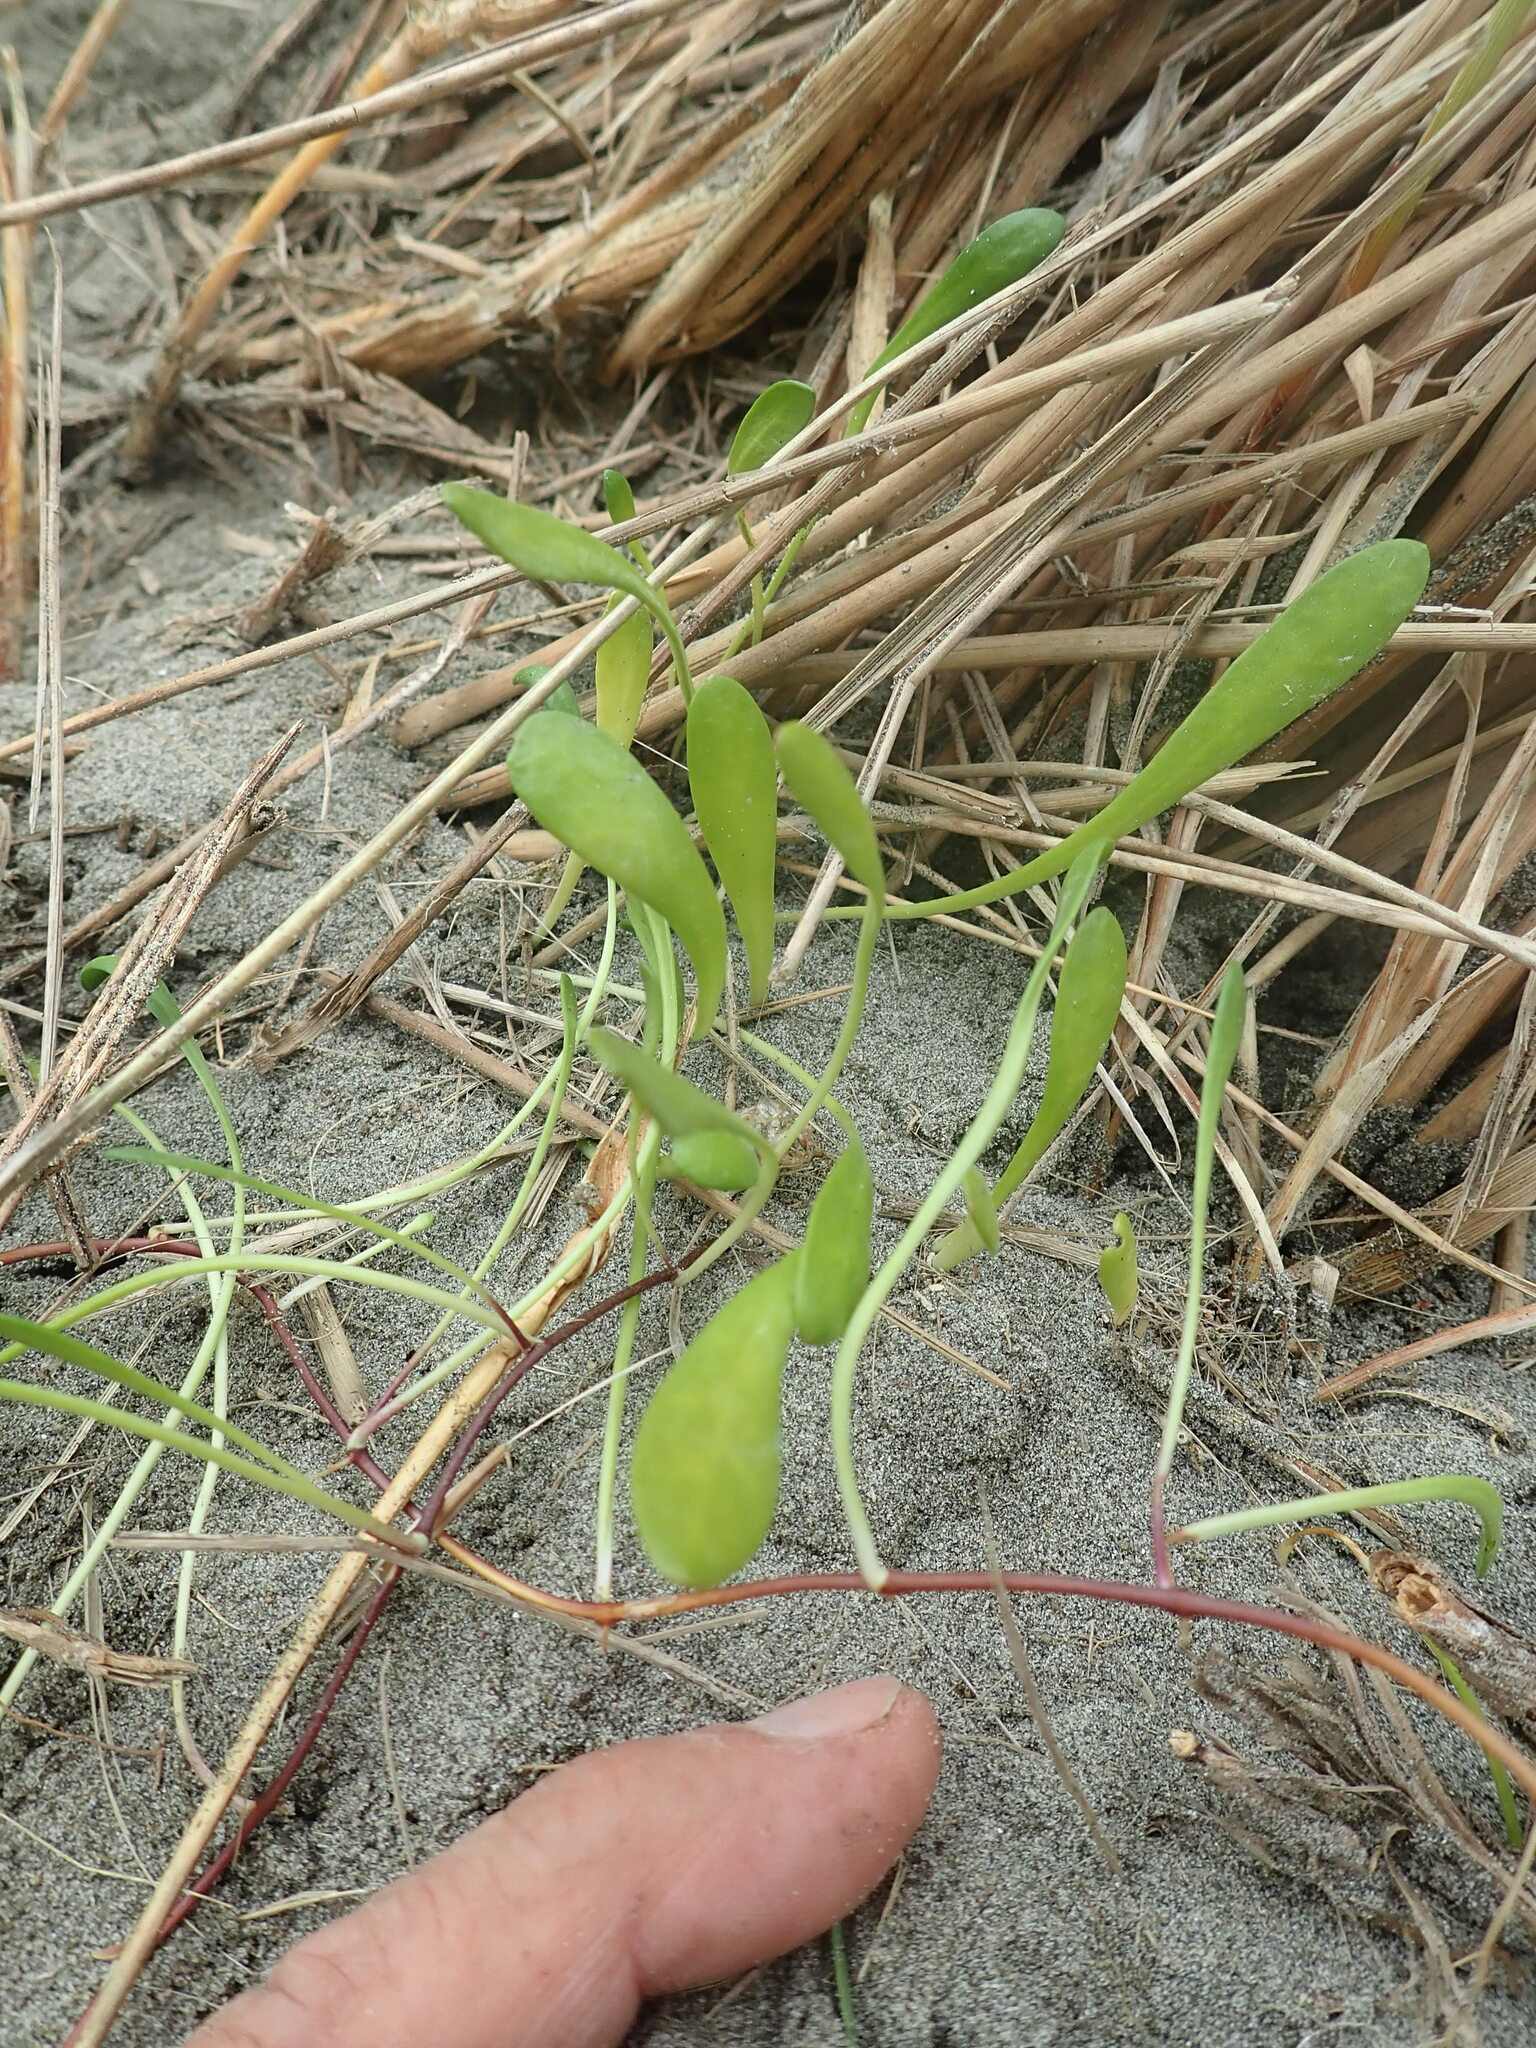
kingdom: Plantae
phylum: Tracheophyta
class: Magnoliopsida
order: Asterales
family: Goodeniaceae
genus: Goodenia
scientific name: Goodenia radicans
